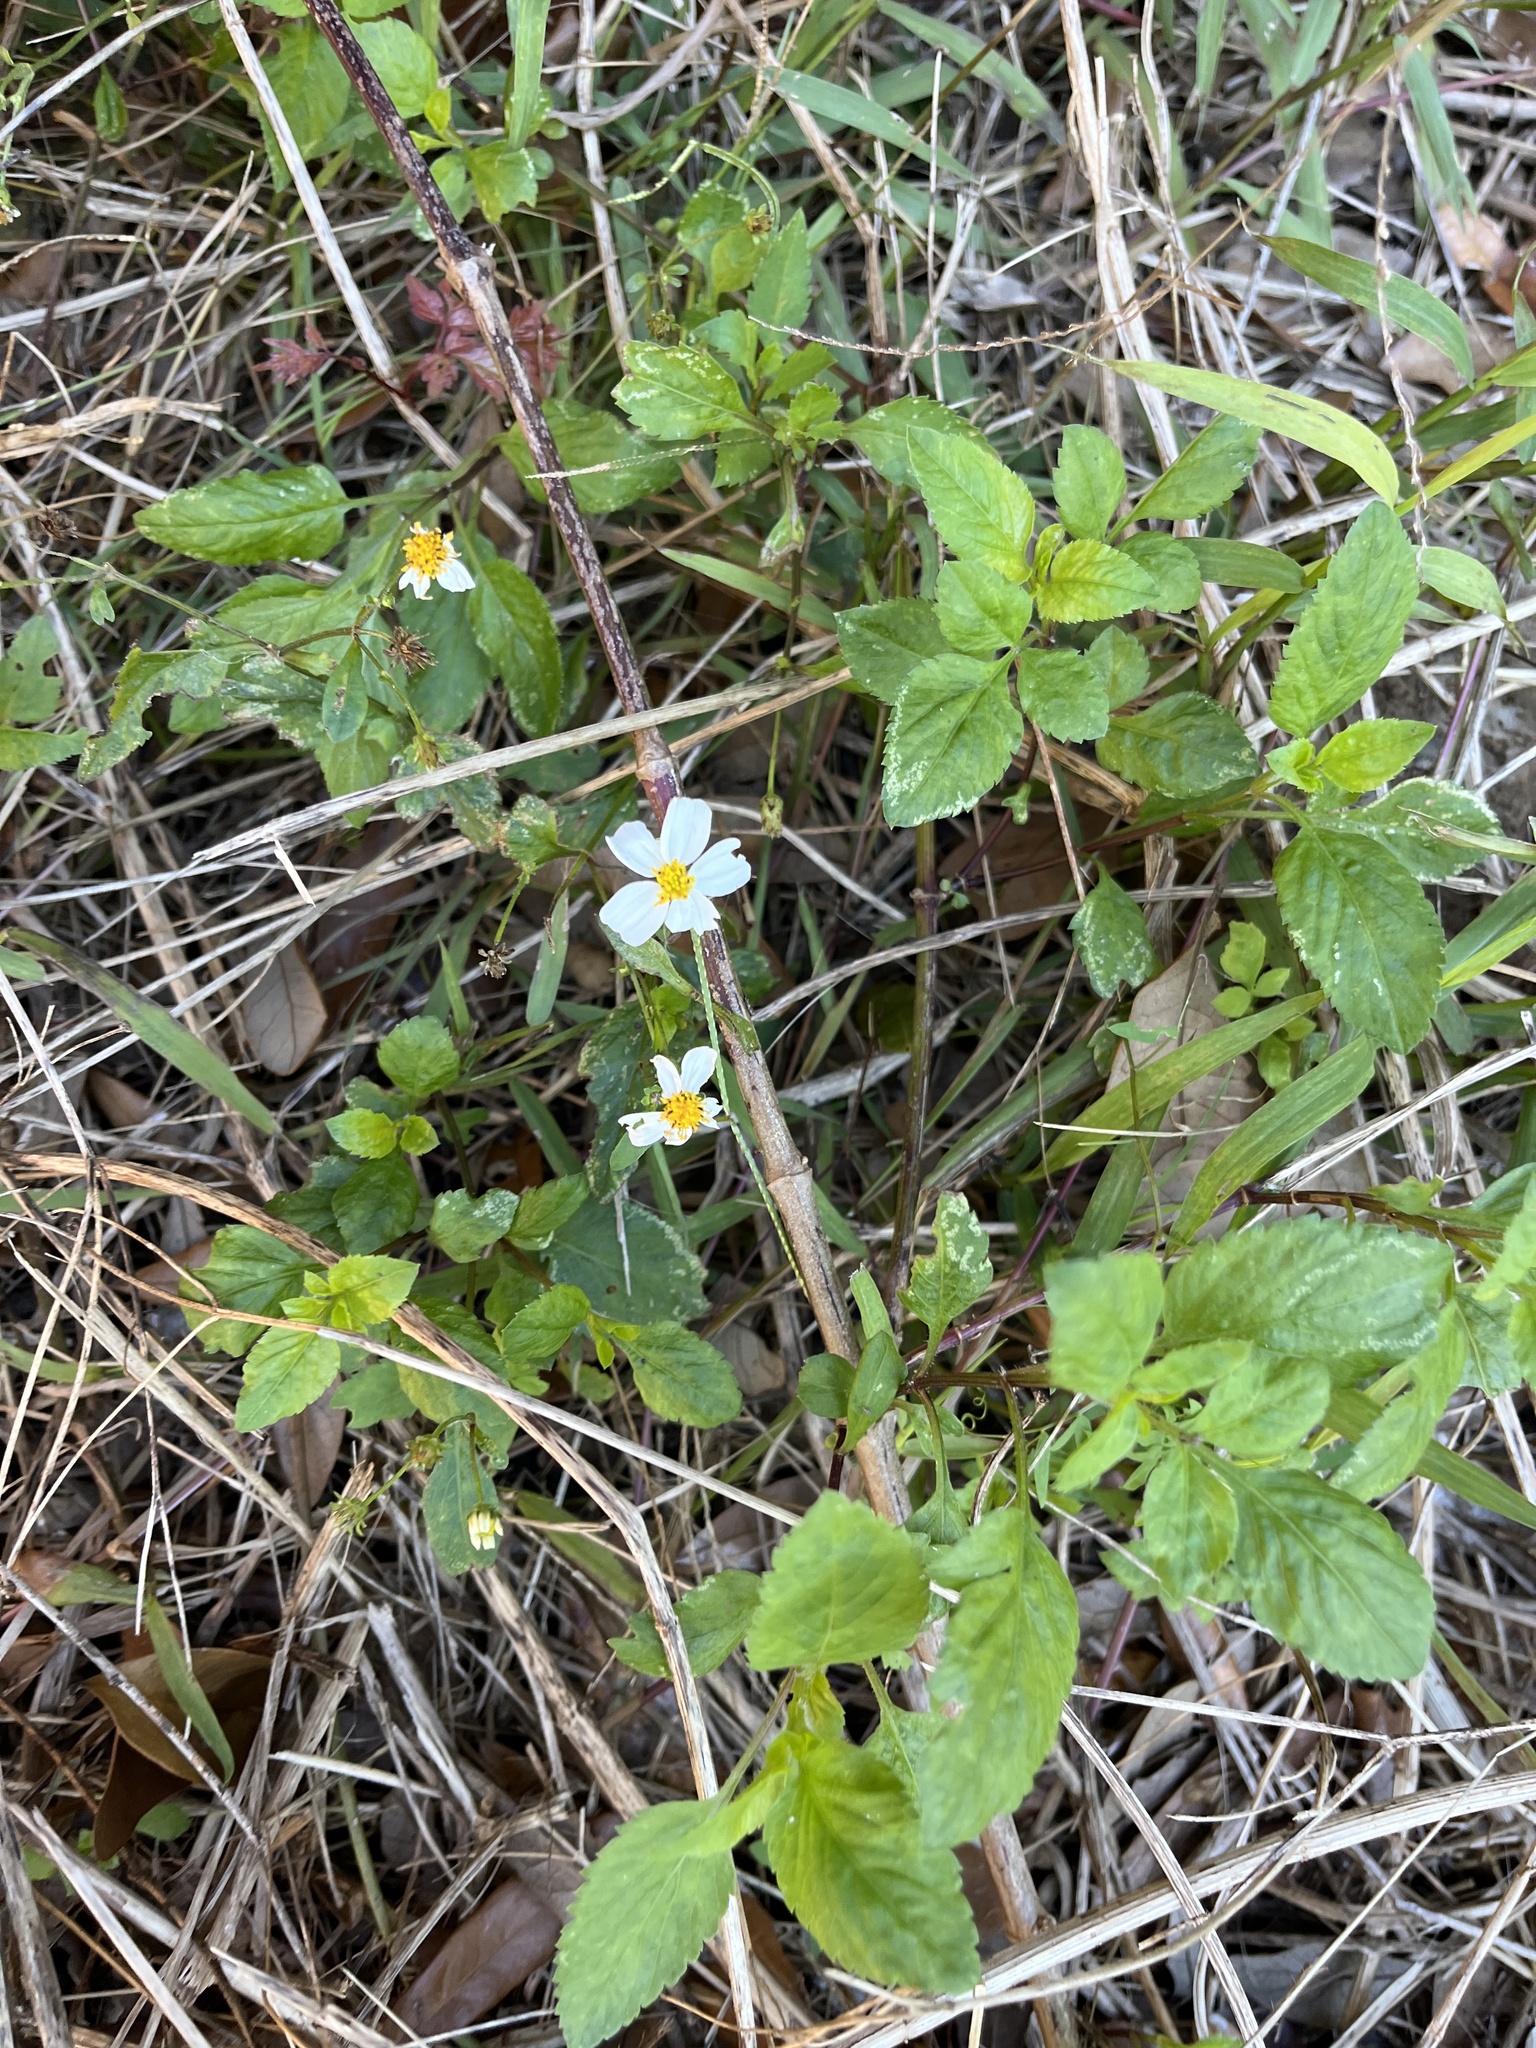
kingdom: Plantae
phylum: Tracheophyta
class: Magnoliopsida
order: Asterales
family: Asteraceae
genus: Bidens
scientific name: Bidens alba
